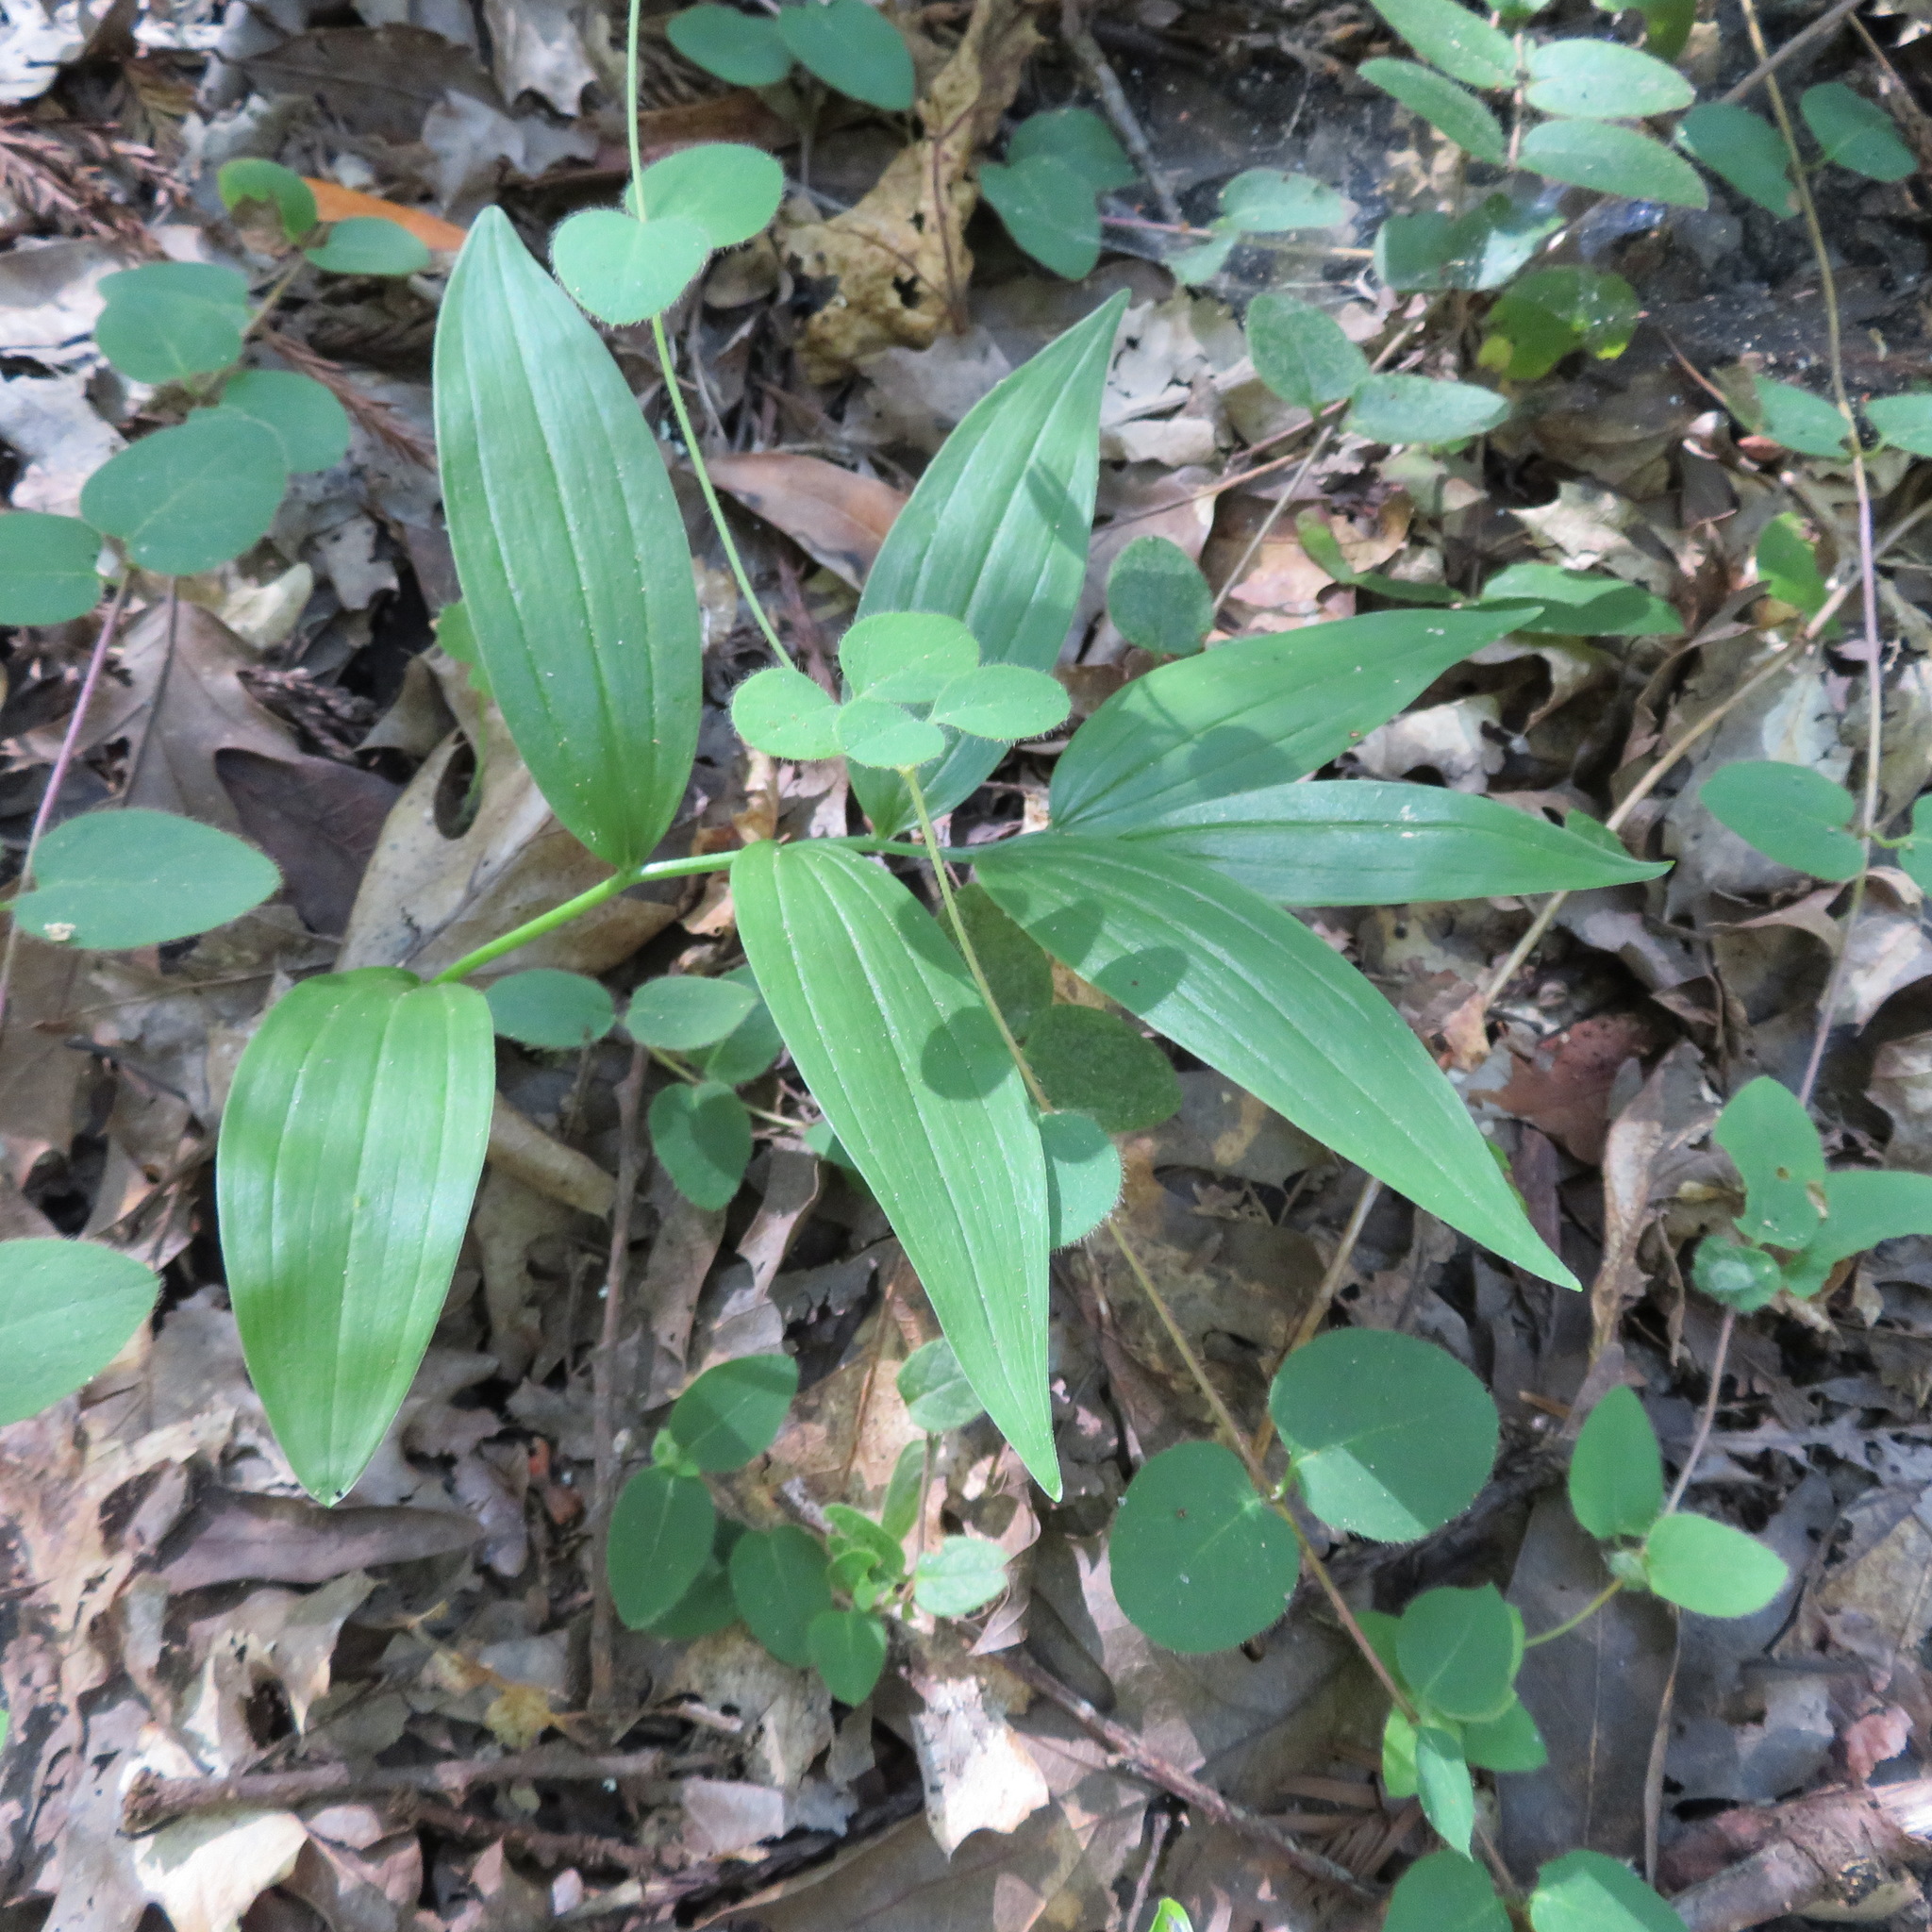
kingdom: Plantae
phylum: Tracheophyta
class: Liliopsida
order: Asparagales
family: Asparagaceae
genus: Maianthemum
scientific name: Maianthemum stellatum
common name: Little false solomon's seal
